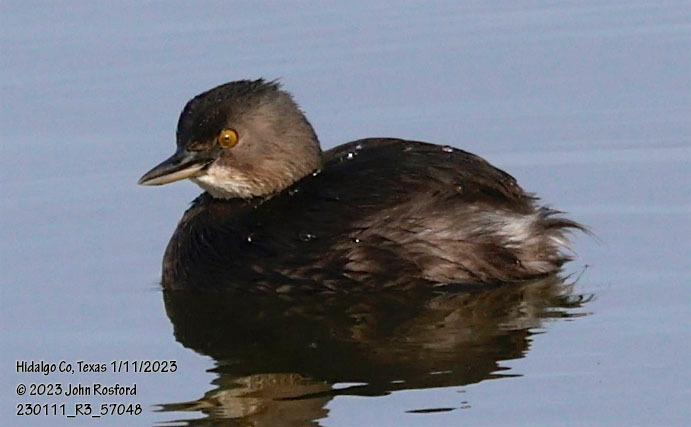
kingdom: Animalia
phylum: Chordata
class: Aves
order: Podicipediformes
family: Podicipedidae
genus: Tachybaptus
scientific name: Tachybaptus dominicus
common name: Least grebe
